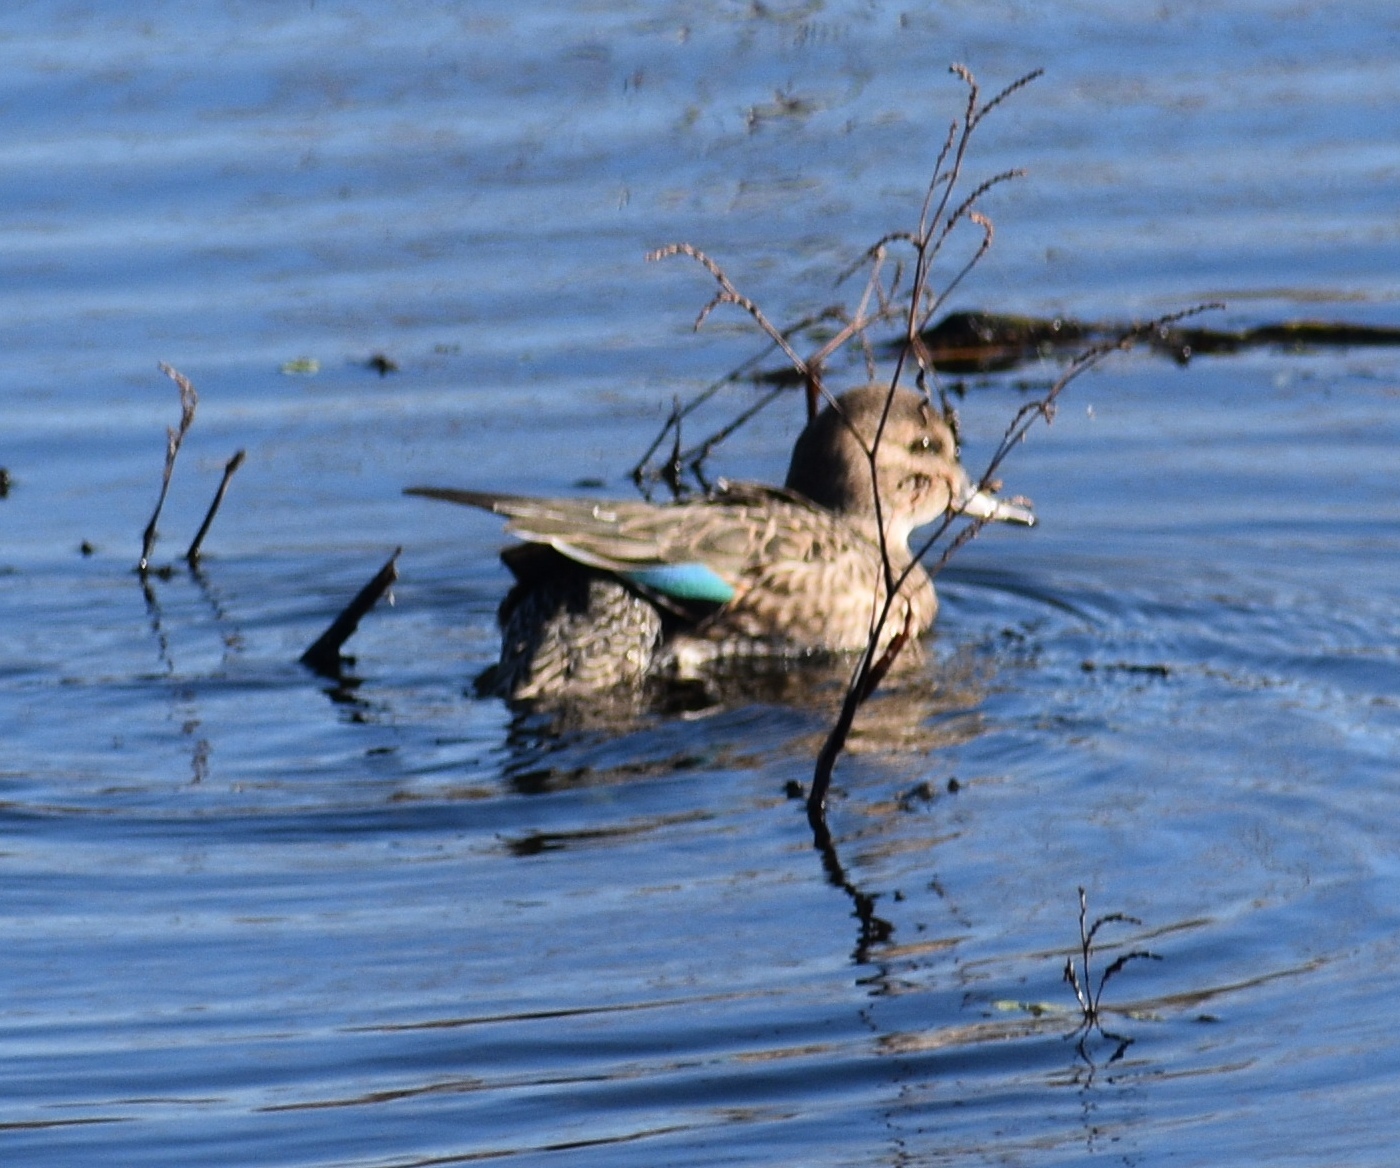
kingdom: Animalia
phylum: Chordata
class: Aves
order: Anseriformes
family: Anatidae
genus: Anas
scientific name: Anas crecca
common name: Eurasian teal
